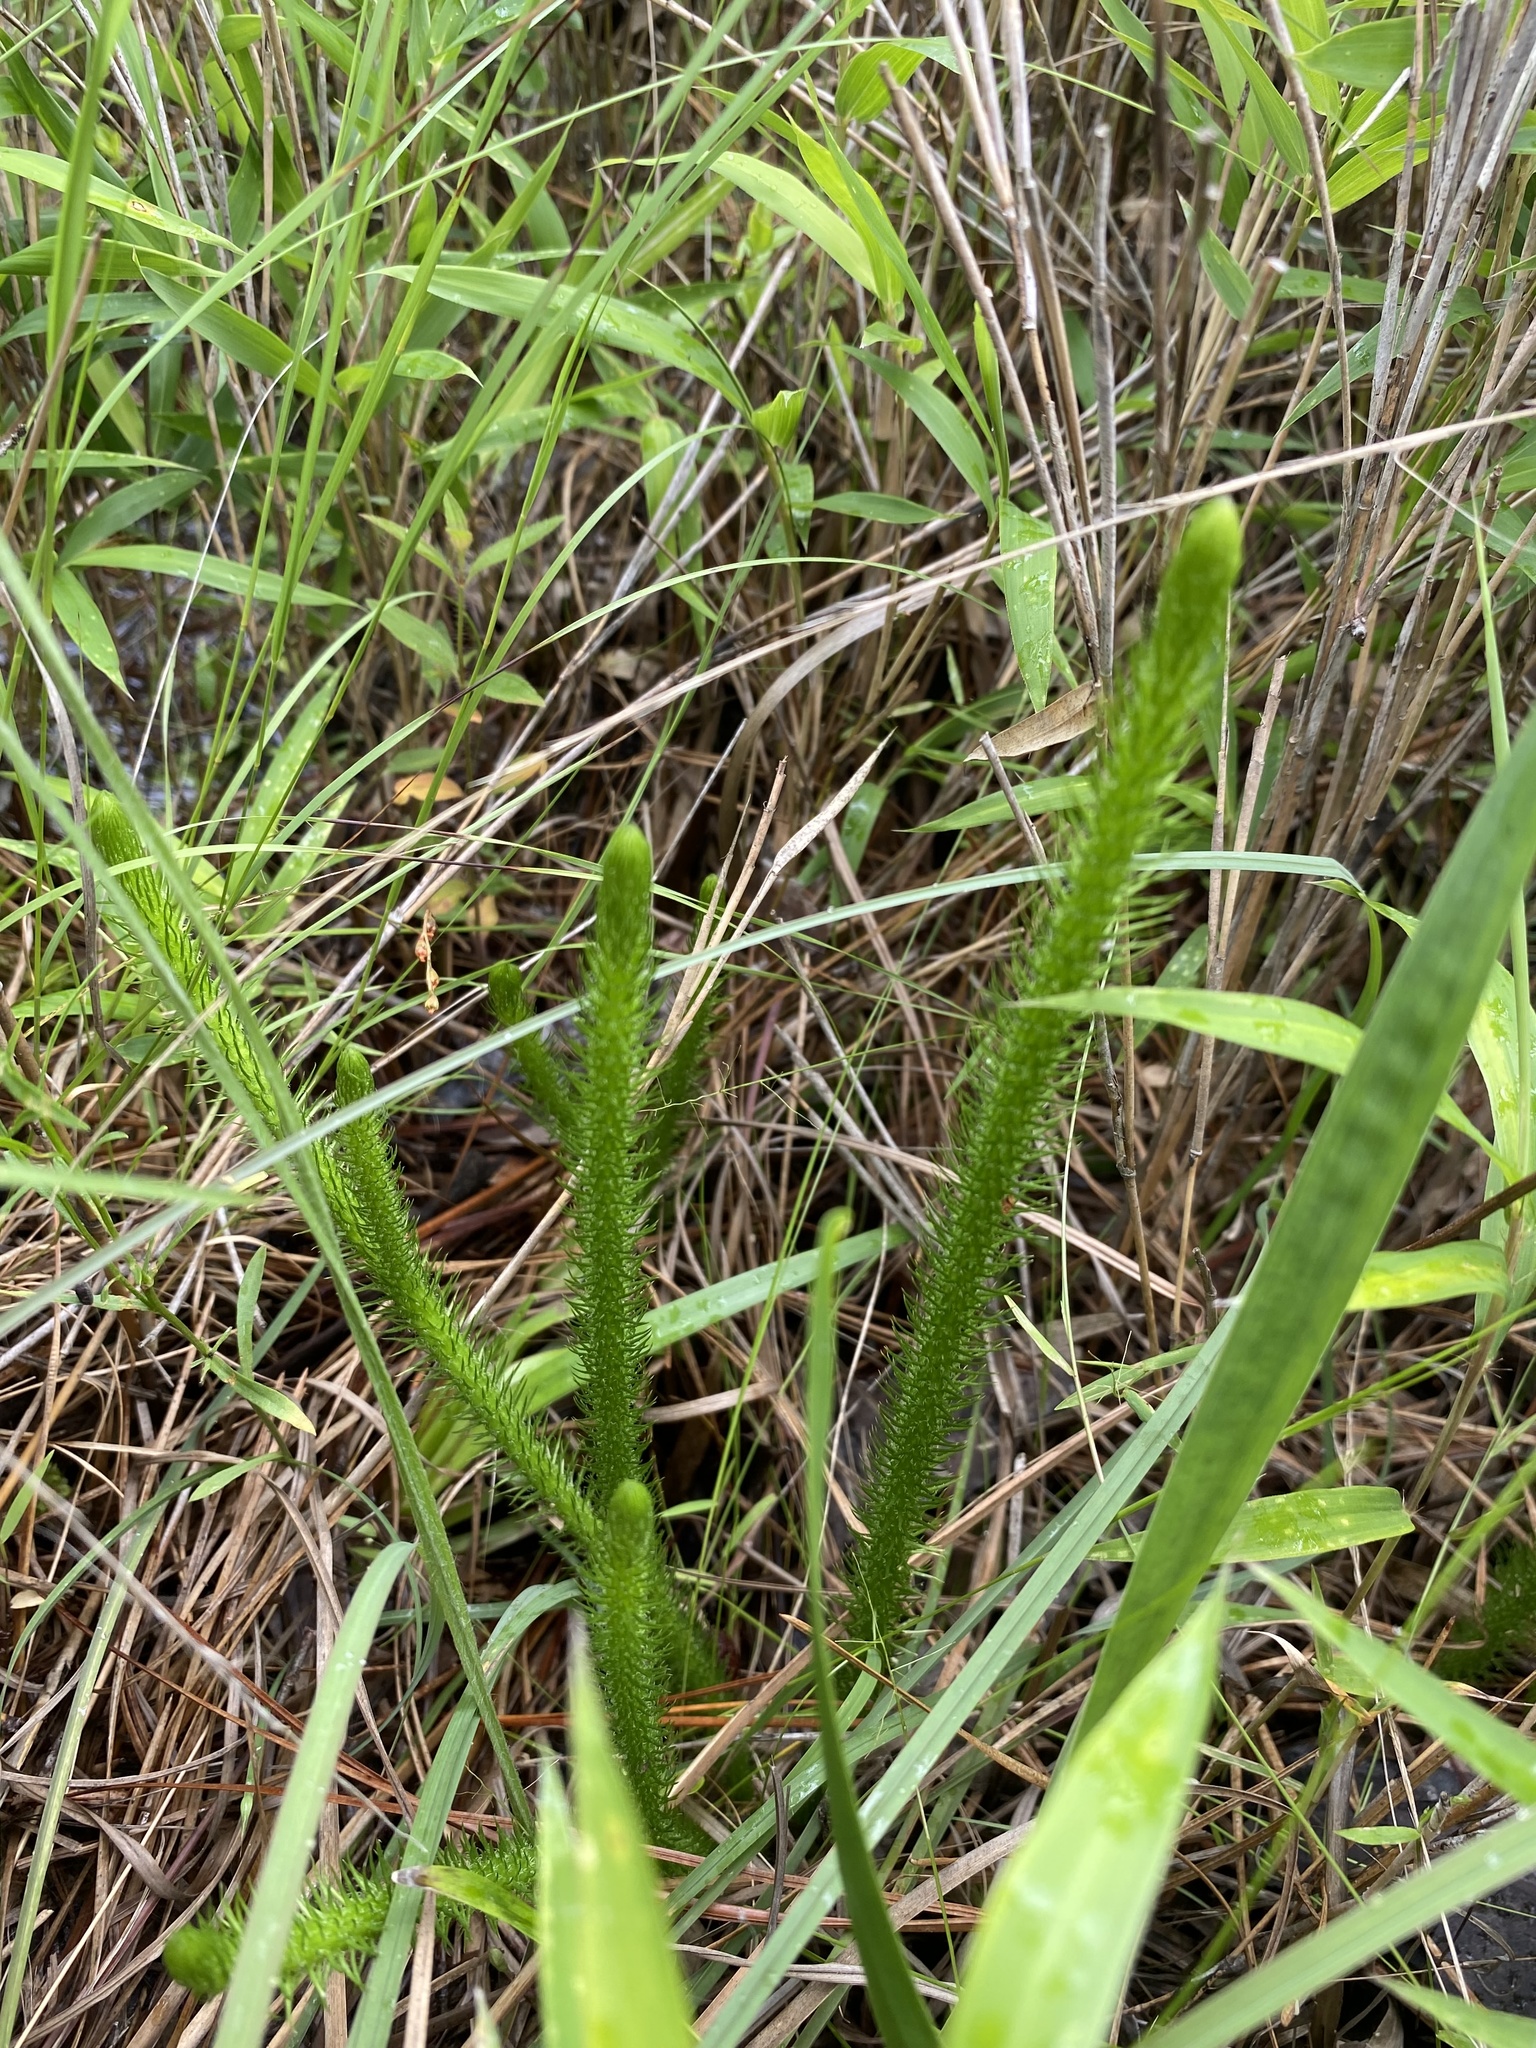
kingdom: Plantae
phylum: Tracheophyta
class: Lycopodiopsida
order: Lycopodiales
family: Lycopodiaceae
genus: Lycopodiella
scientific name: Lycopodiella alopecuroides
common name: Foxtail clubmoss
